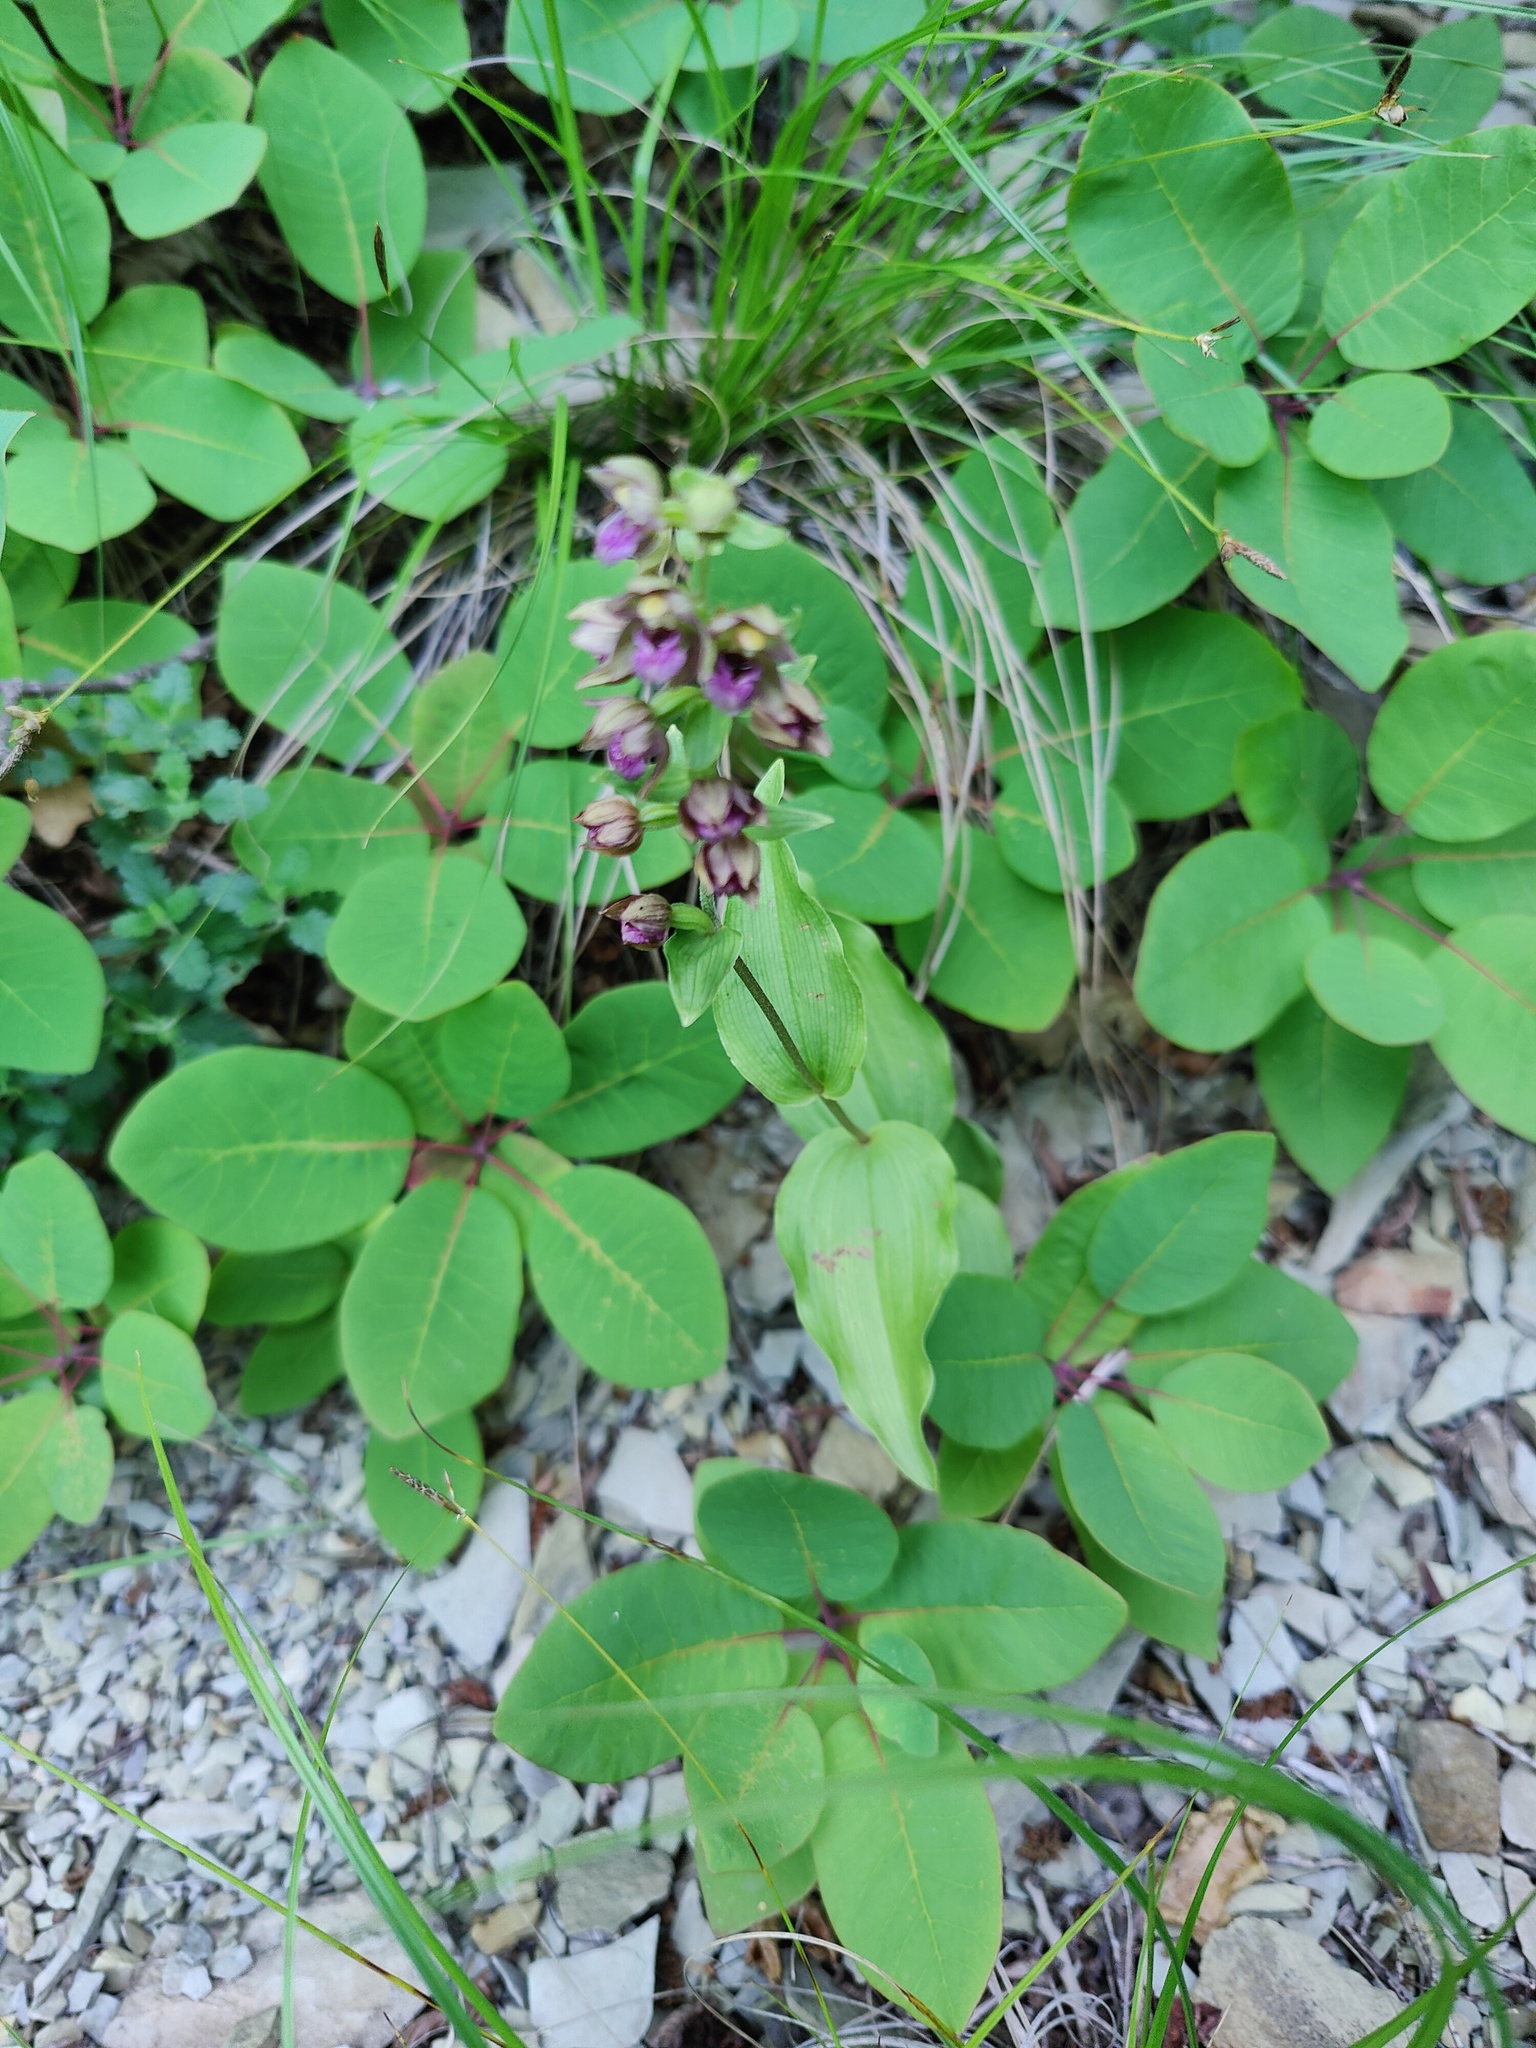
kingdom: Plantae
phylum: Tracheophyta
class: Liliopsida
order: Asparagales
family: Orchidaceae
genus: Epipactis
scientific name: Epipactis helleborine
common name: Broad-leaved helleborine
